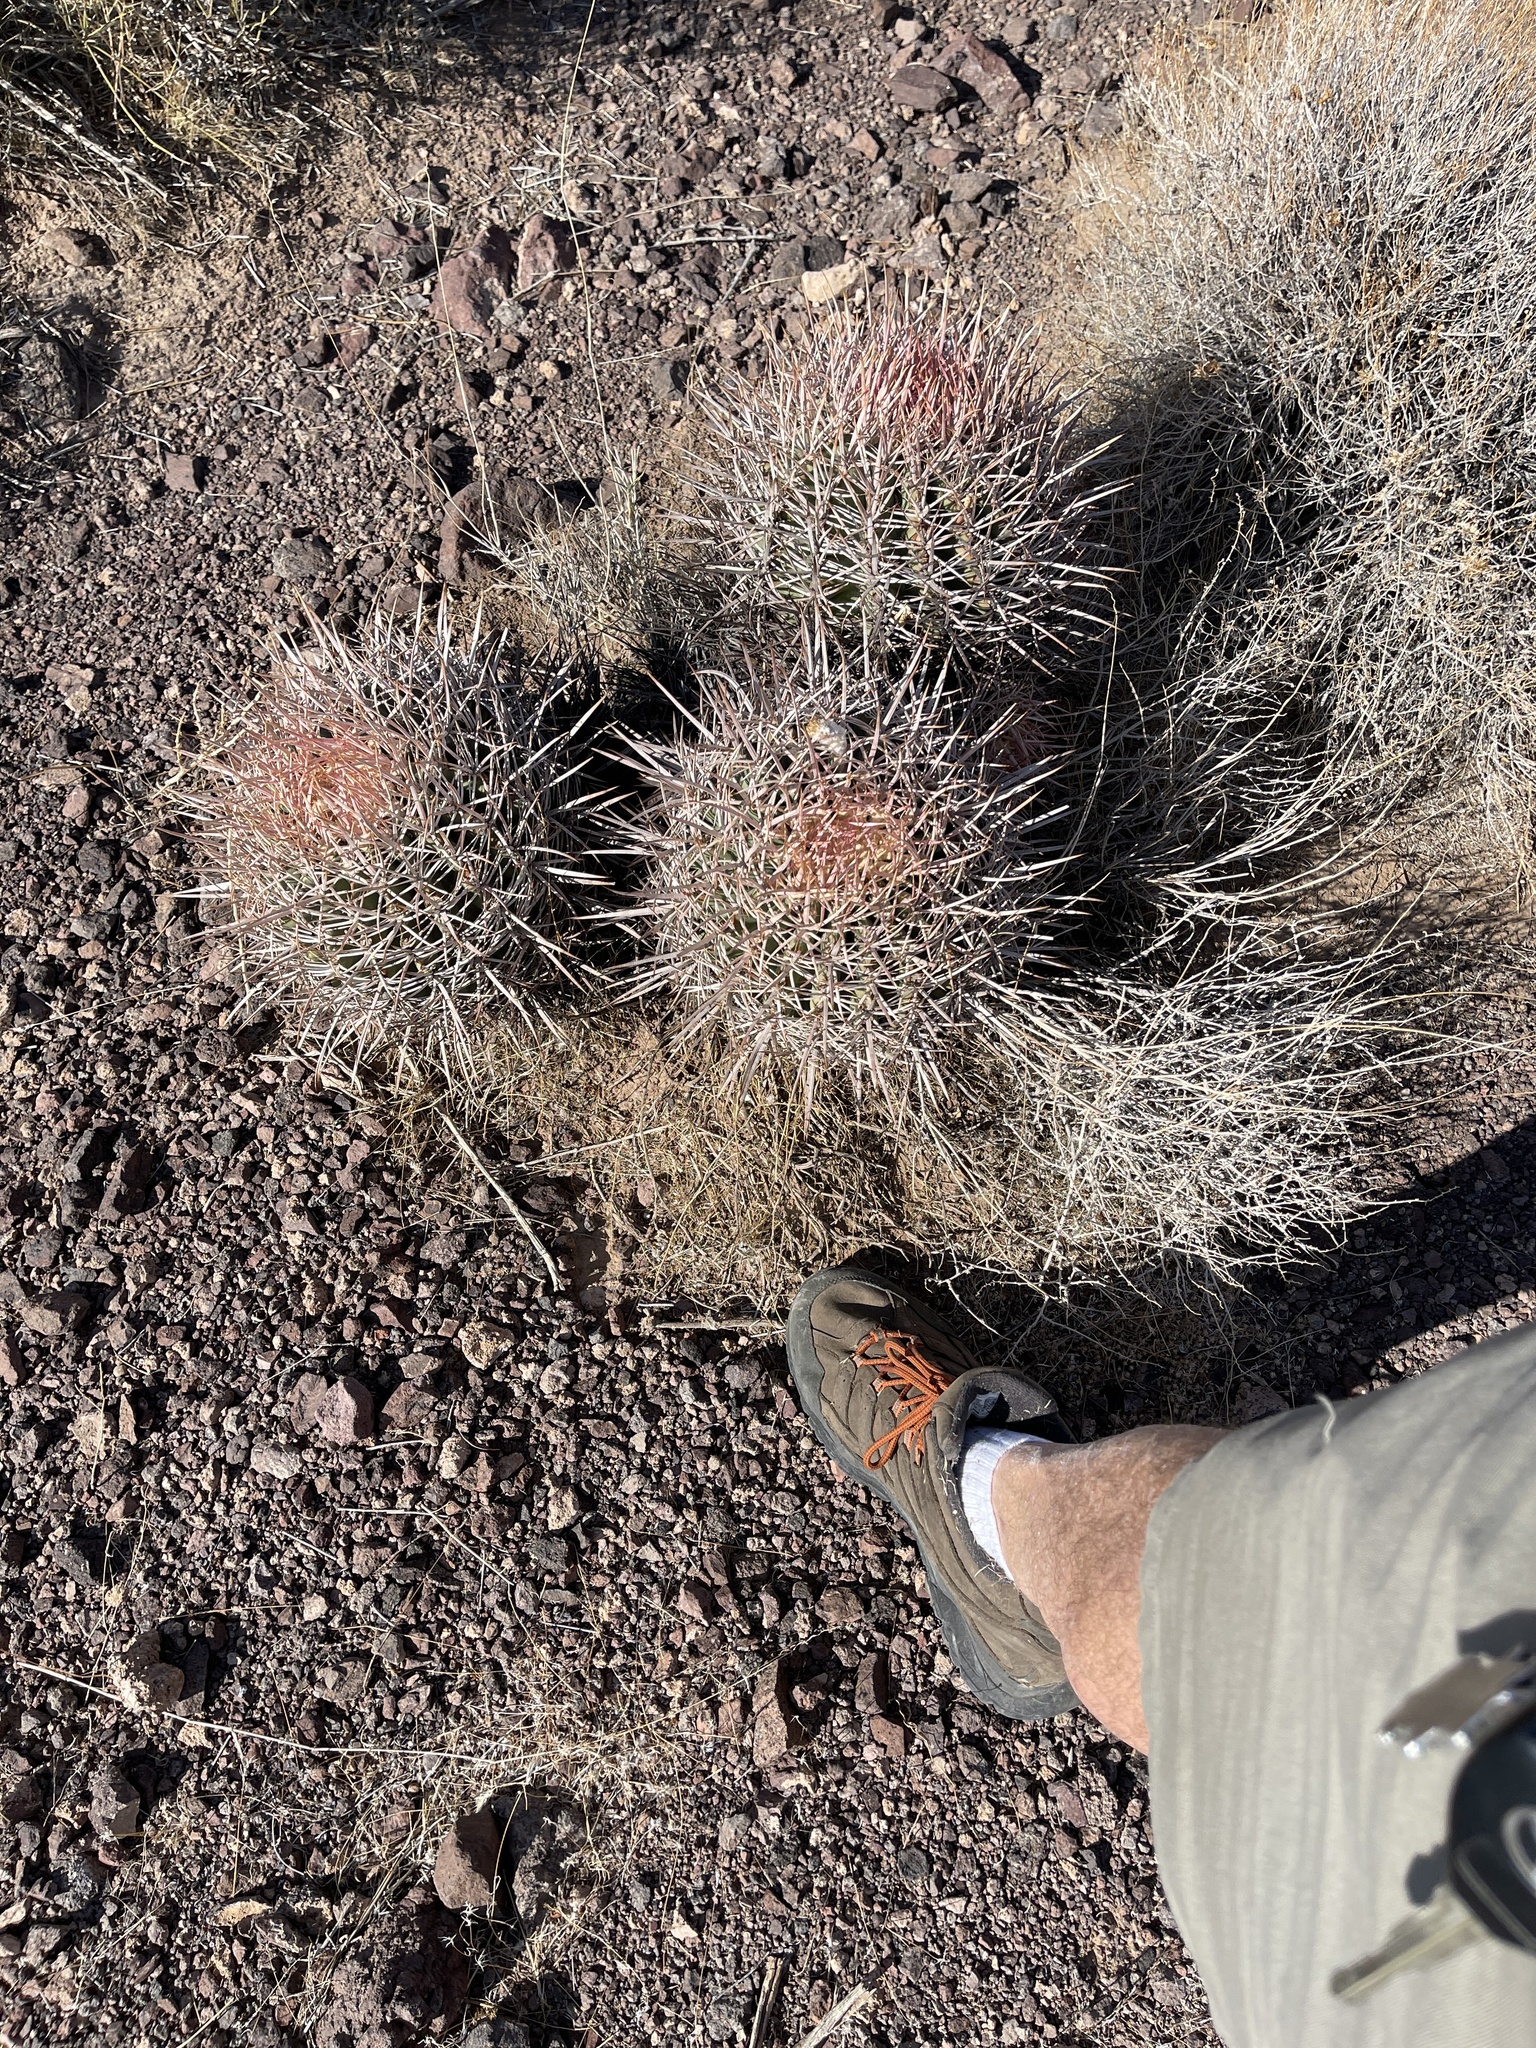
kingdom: Plantae
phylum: Tracheophyta
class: Magnoliopsida
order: Caryophyllales
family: Cactaceae
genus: Echinocactus
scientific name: Echinocactus polycephalus
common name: Cottontop cactus
